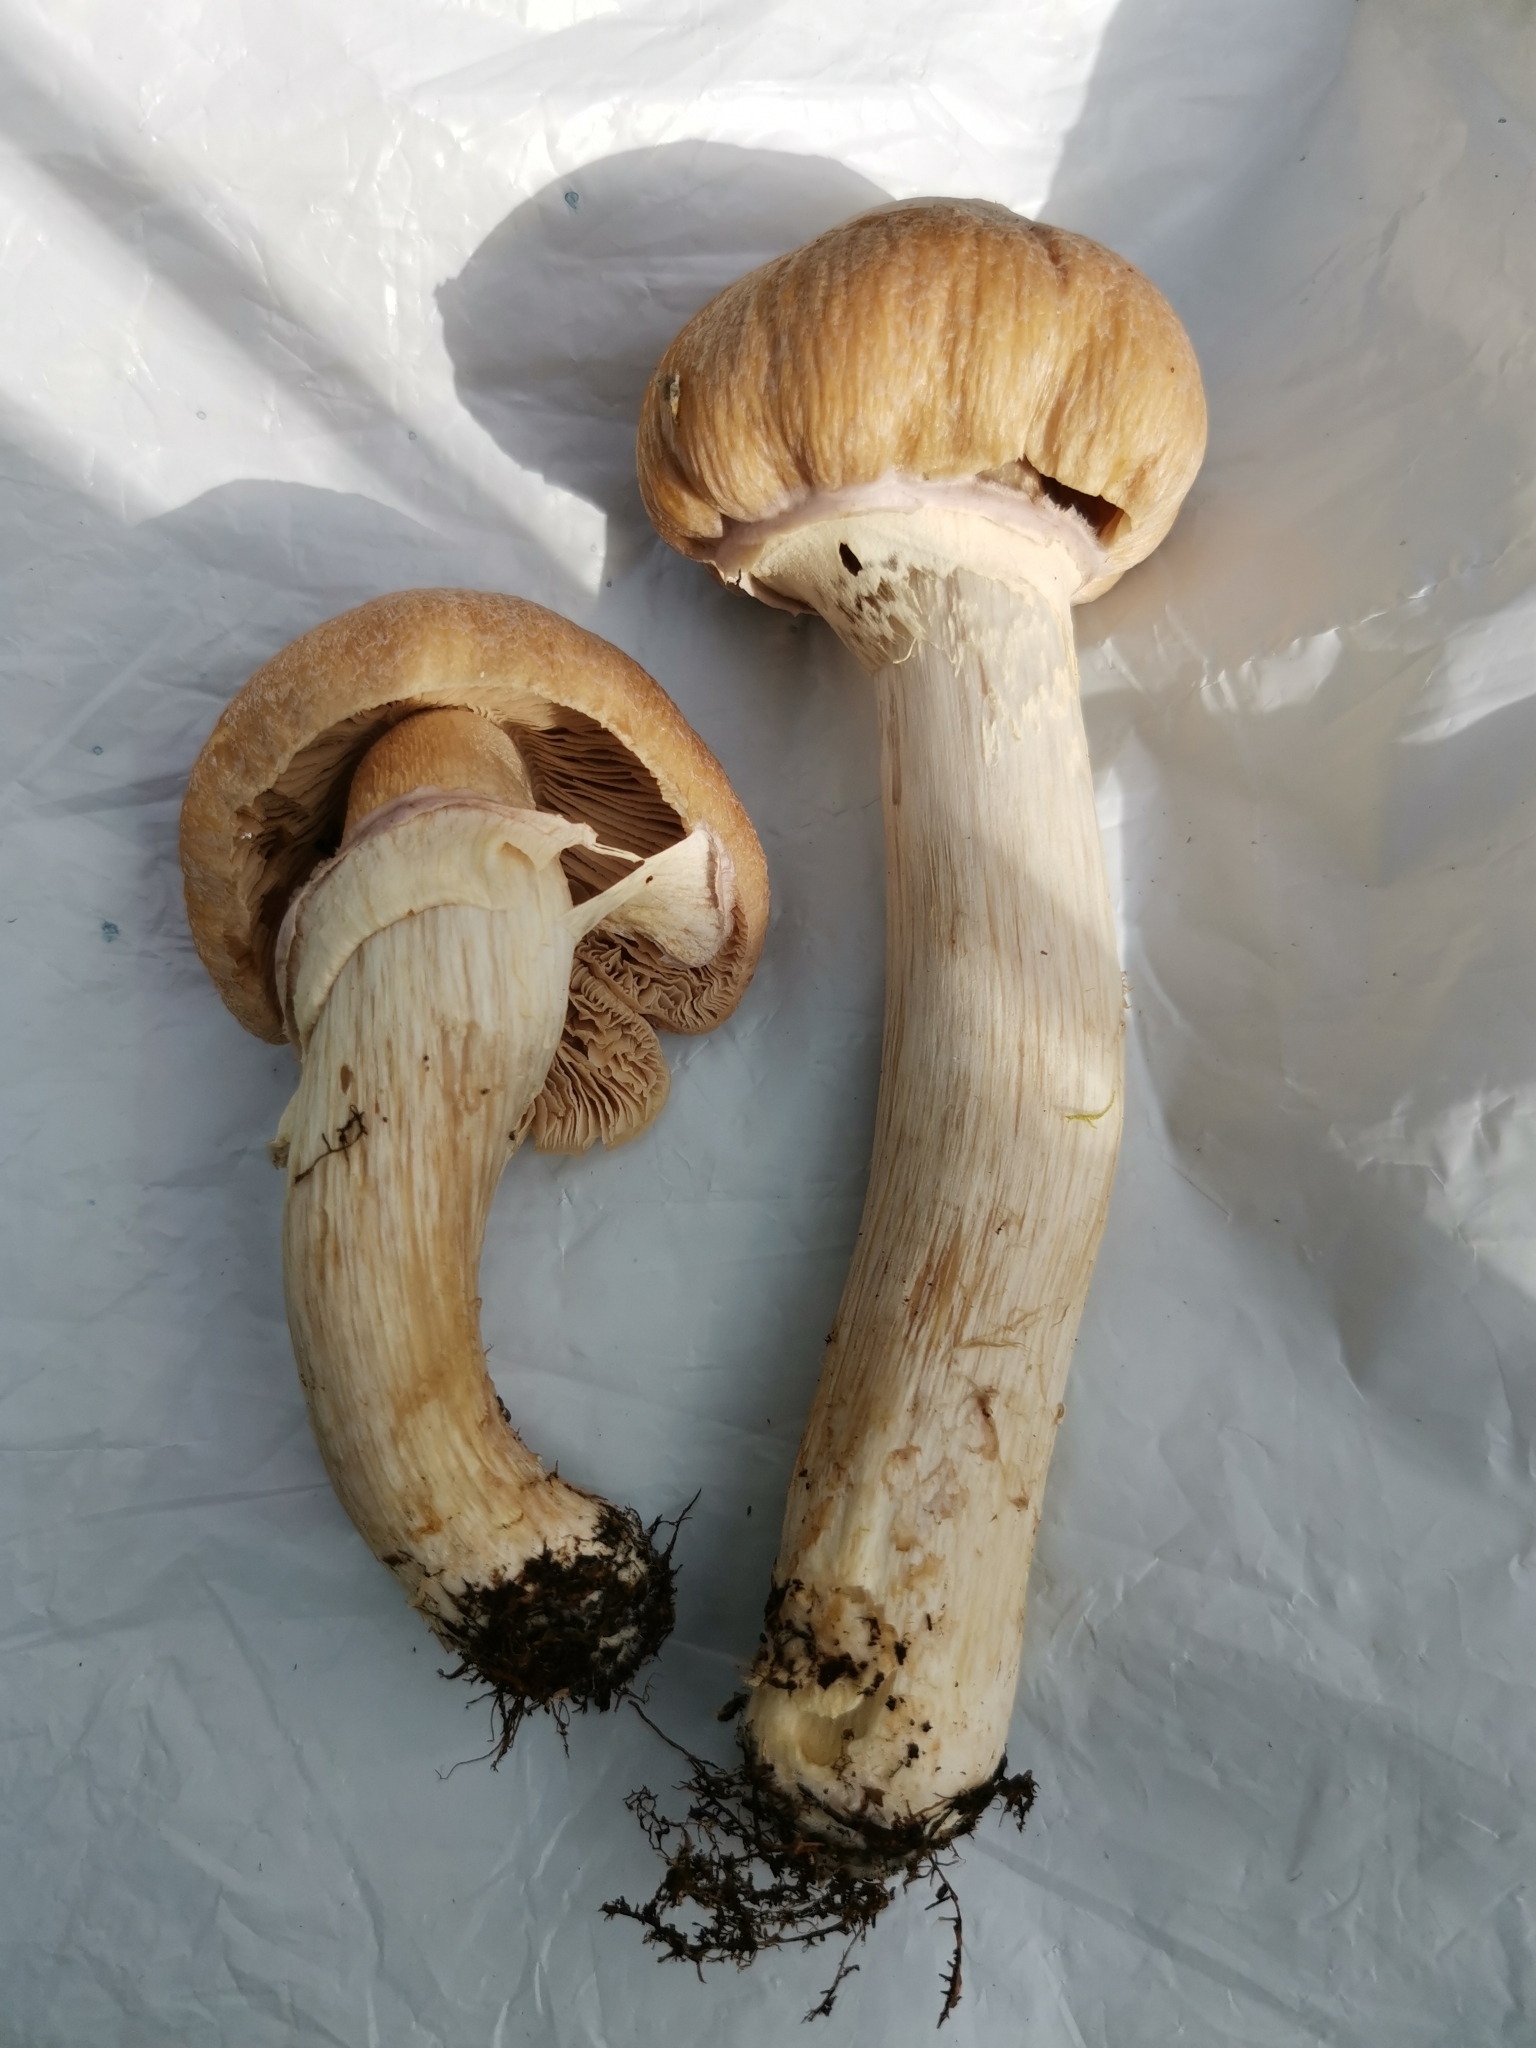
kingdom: Fungi
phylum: Basidiomycota
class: Agaricomycetes
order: Agaricales
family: Cortinariaceae
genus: Cortinarius
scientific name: Cortinarius caperatus
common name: The gypsy
